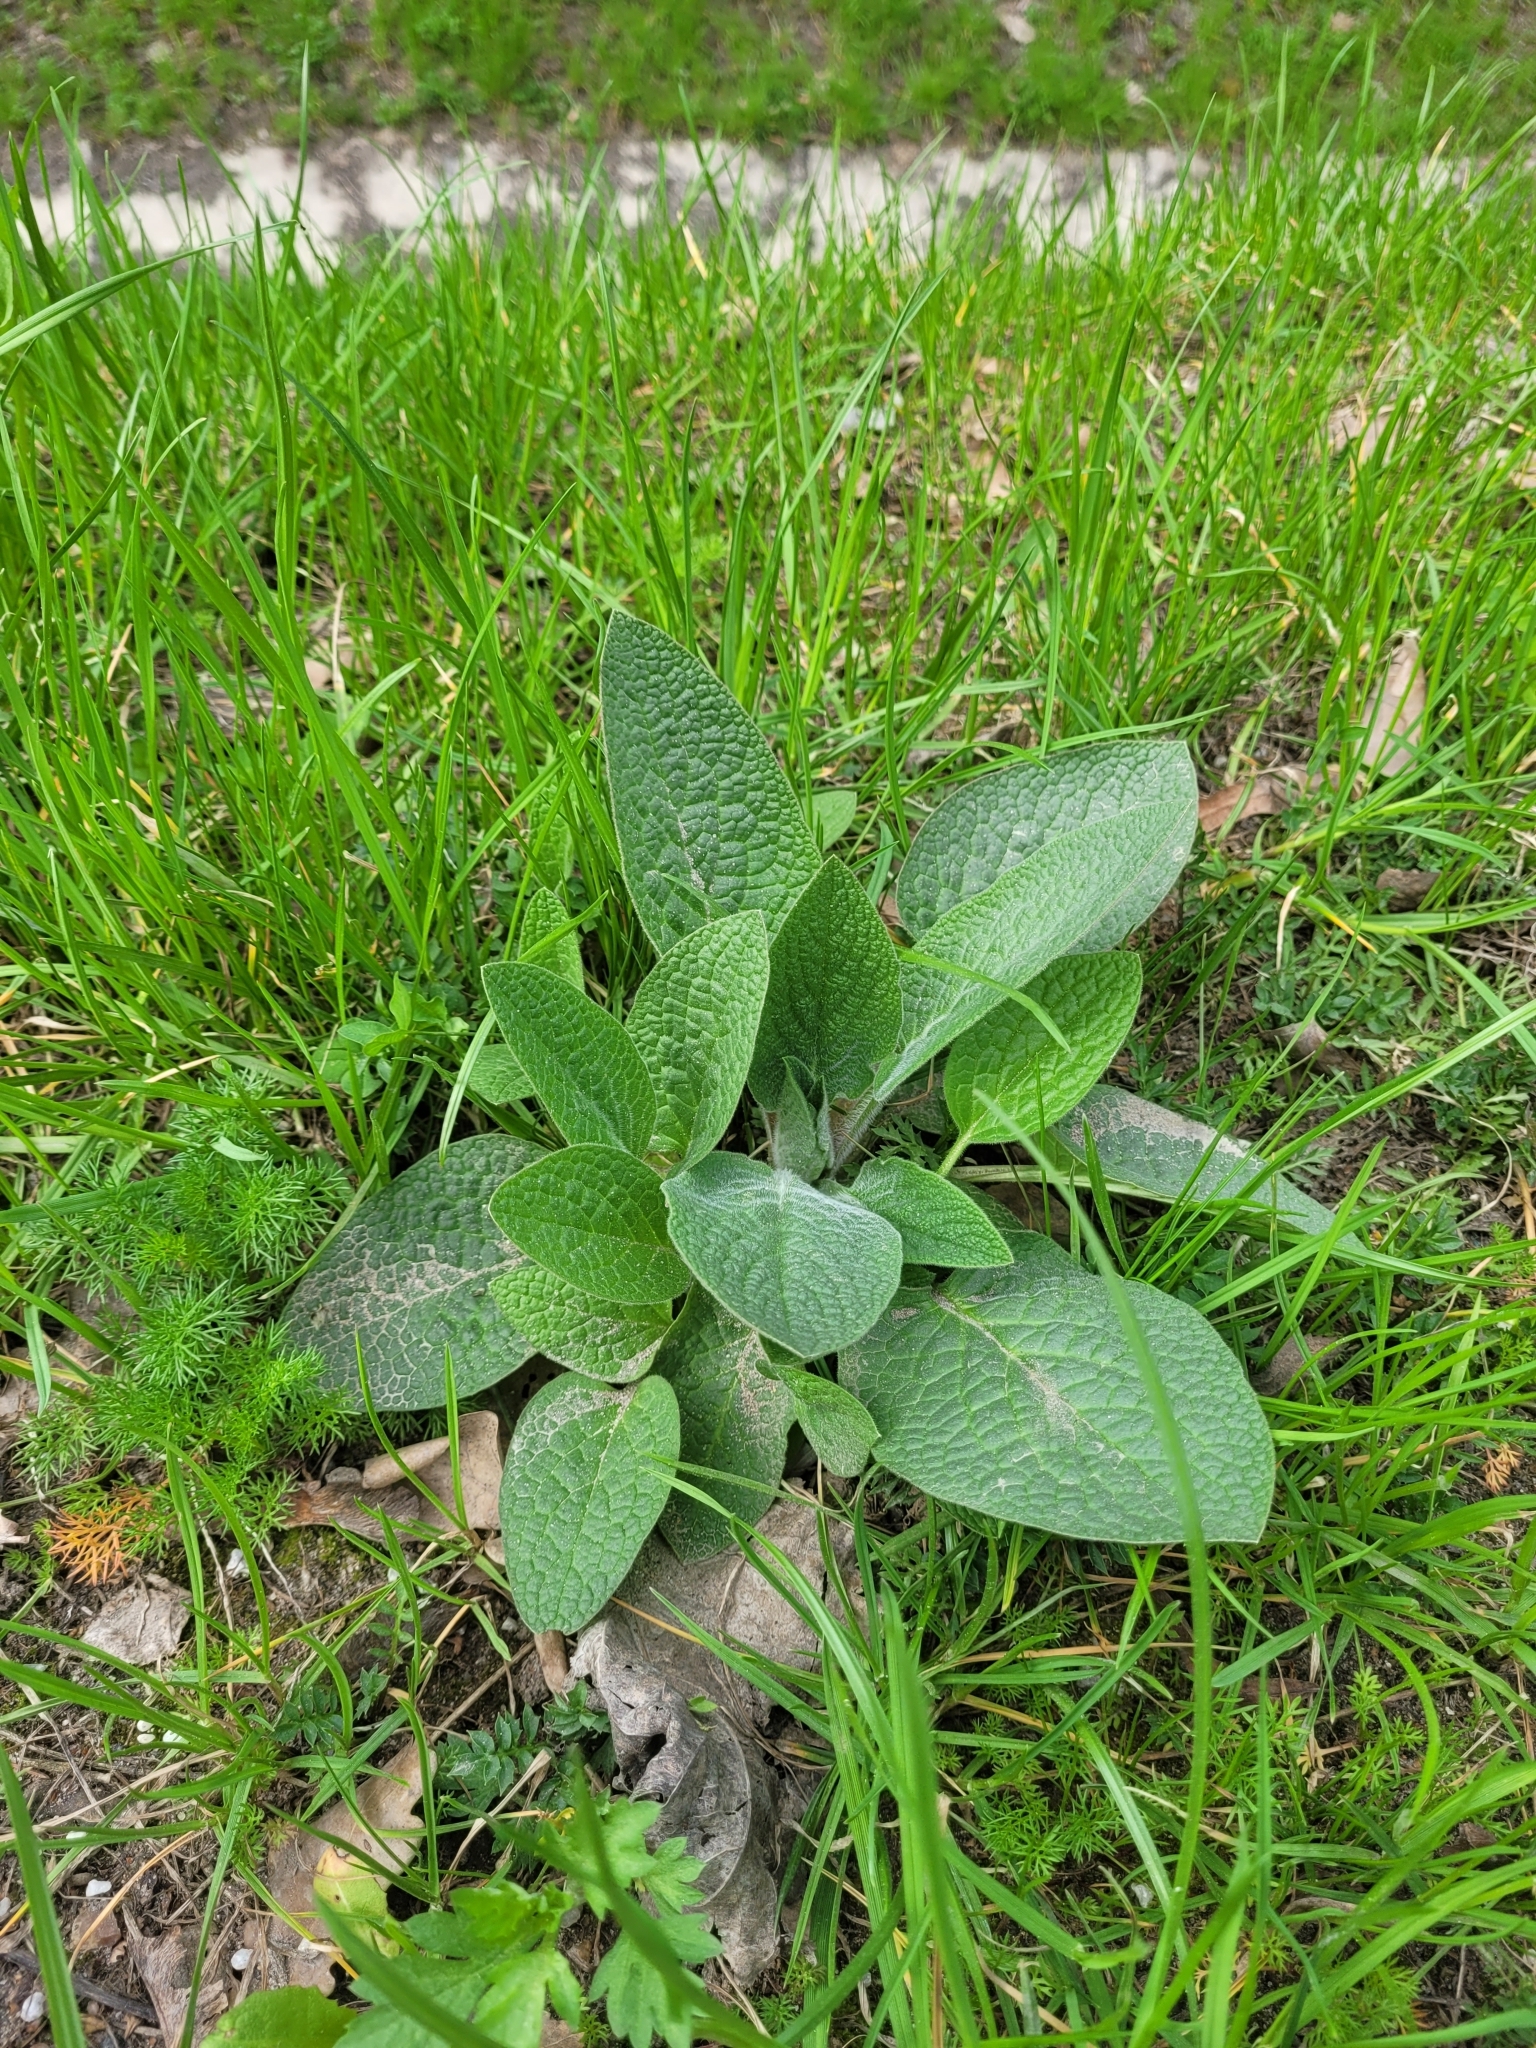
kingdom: Plantae
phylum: Tracheophyta
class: Magnoliopsida
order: Boraginales
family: Boraginaceae
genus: Symphytum
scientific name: Symphytum caucasicum
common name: Caucasian comfrey
